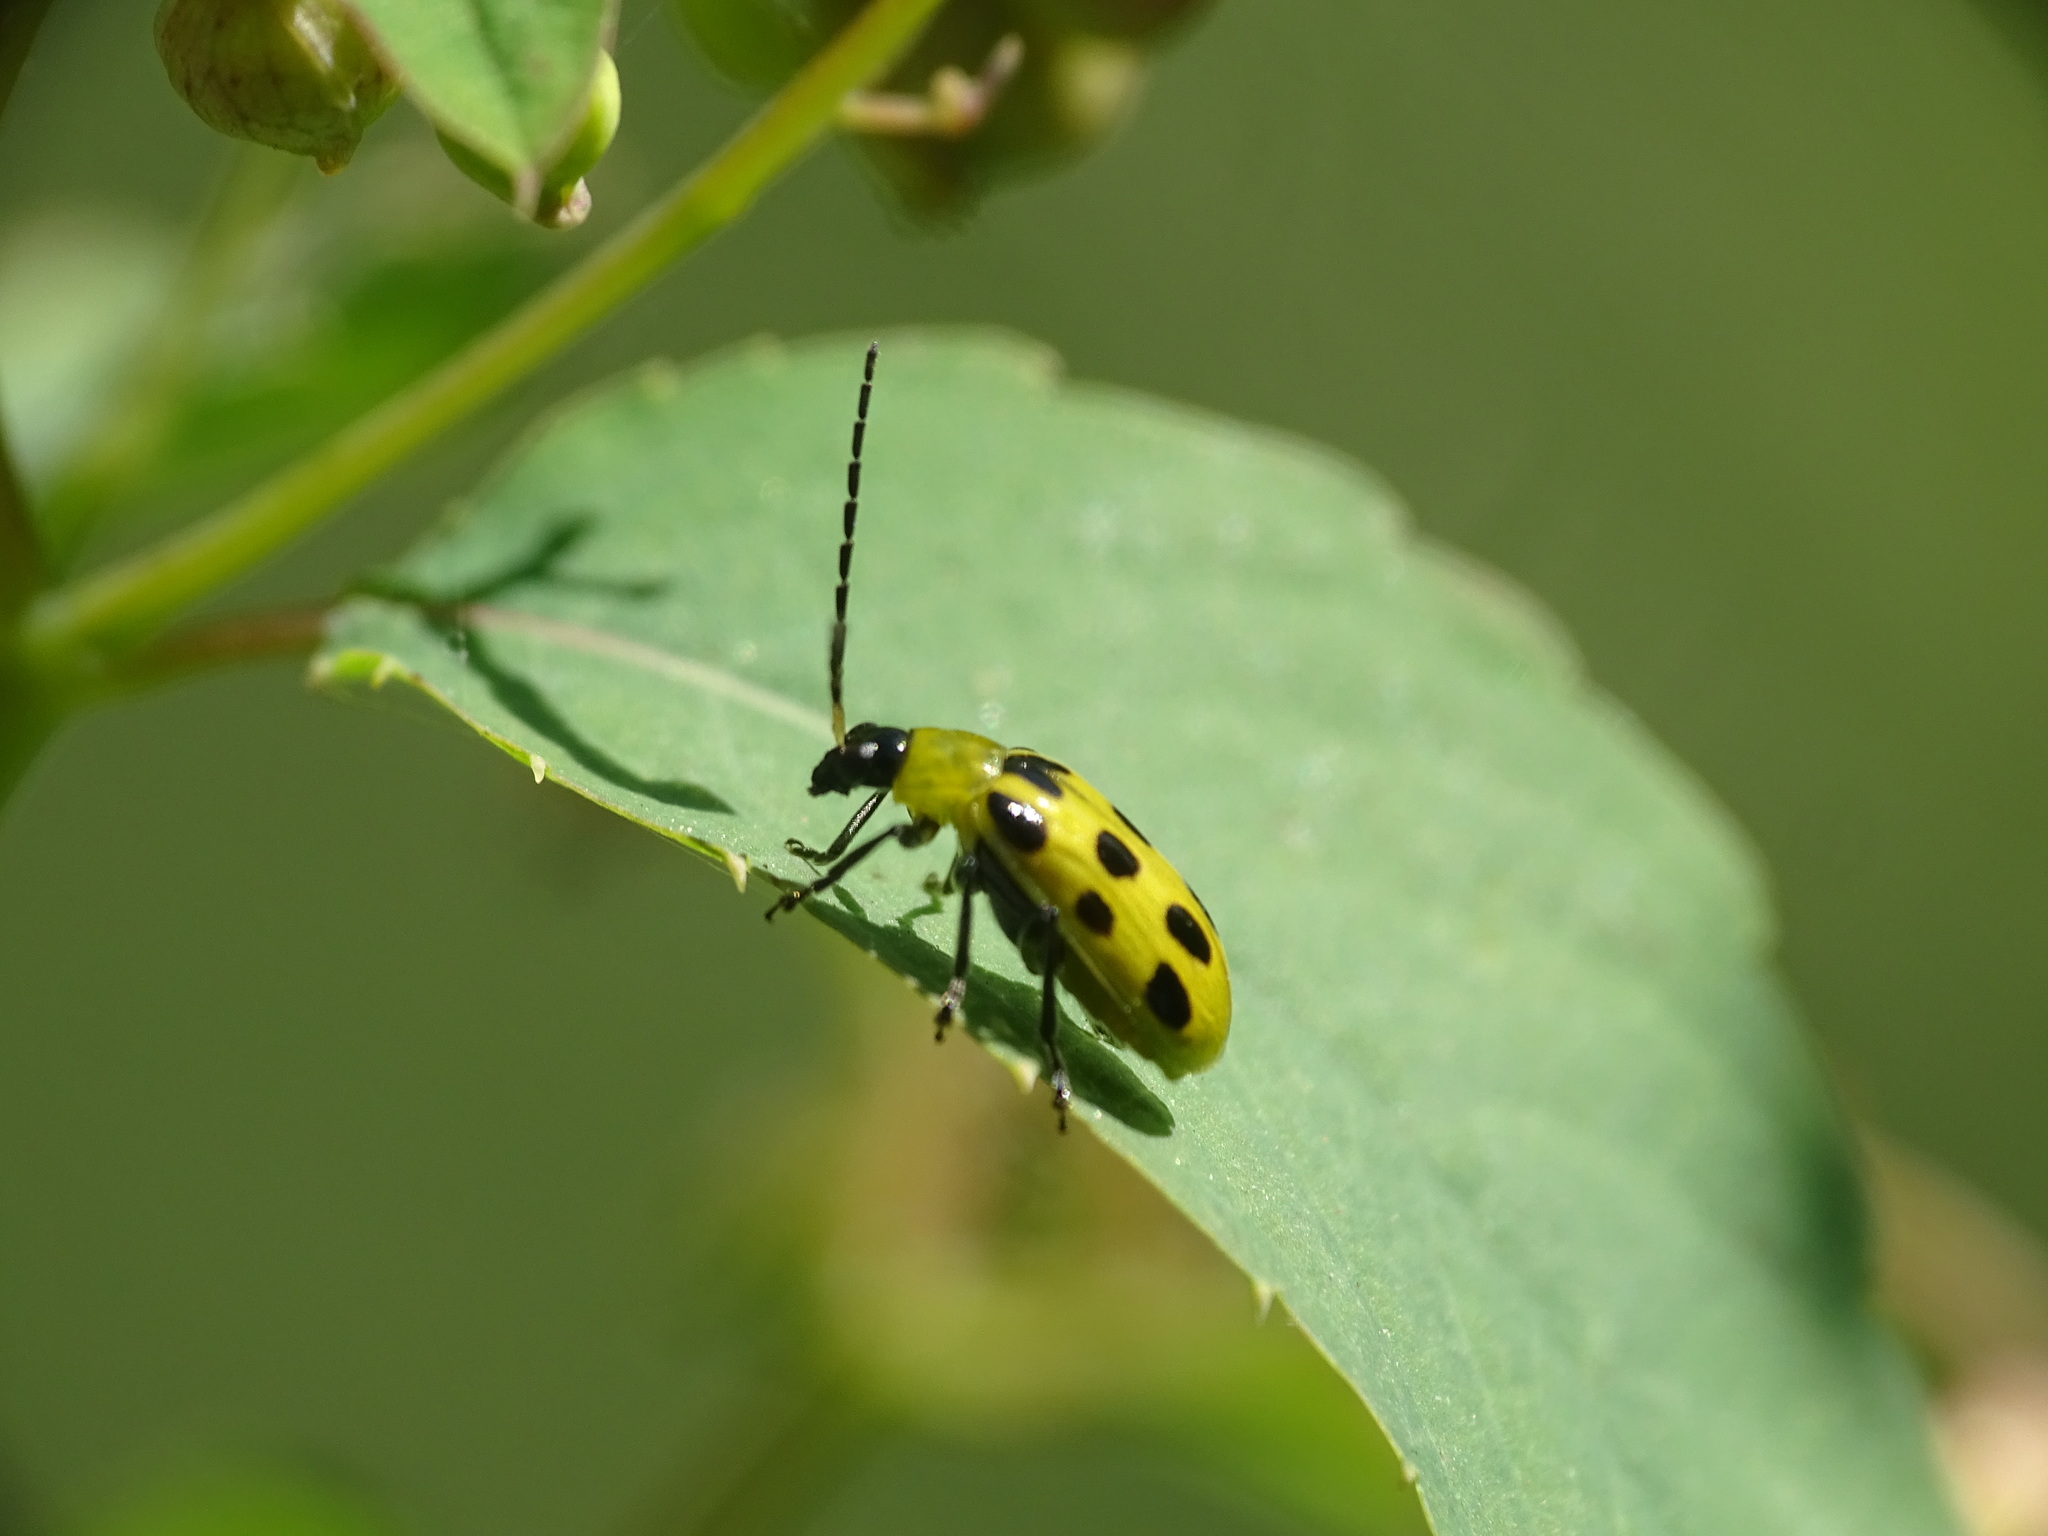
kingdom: Animalia
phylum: Arthropoda
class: Insecta
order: Coleoptera
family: Chrysomelidae
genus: Diabrotica
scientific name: Diabrotica undecimpunctata
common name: Spotted cucumber beetle
